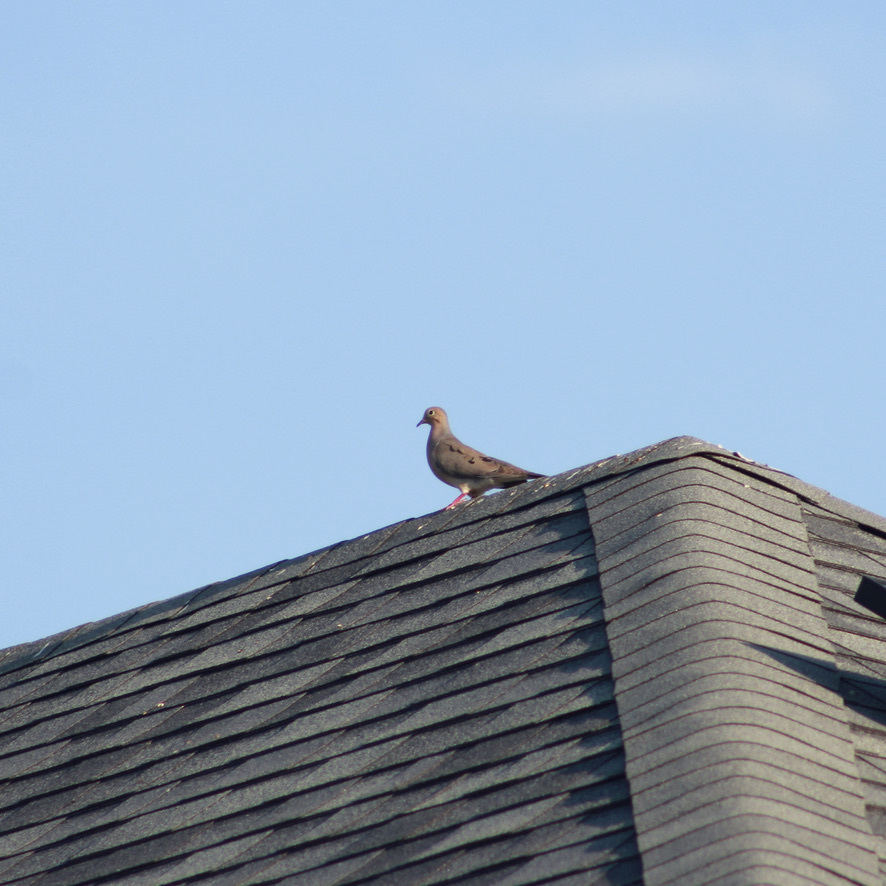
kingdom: Animalia
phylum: Chordata
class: Aves
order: Columbiformes
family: Columbidae
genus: Zenaida
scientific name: Zenaida macroura
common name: Mourning dove
